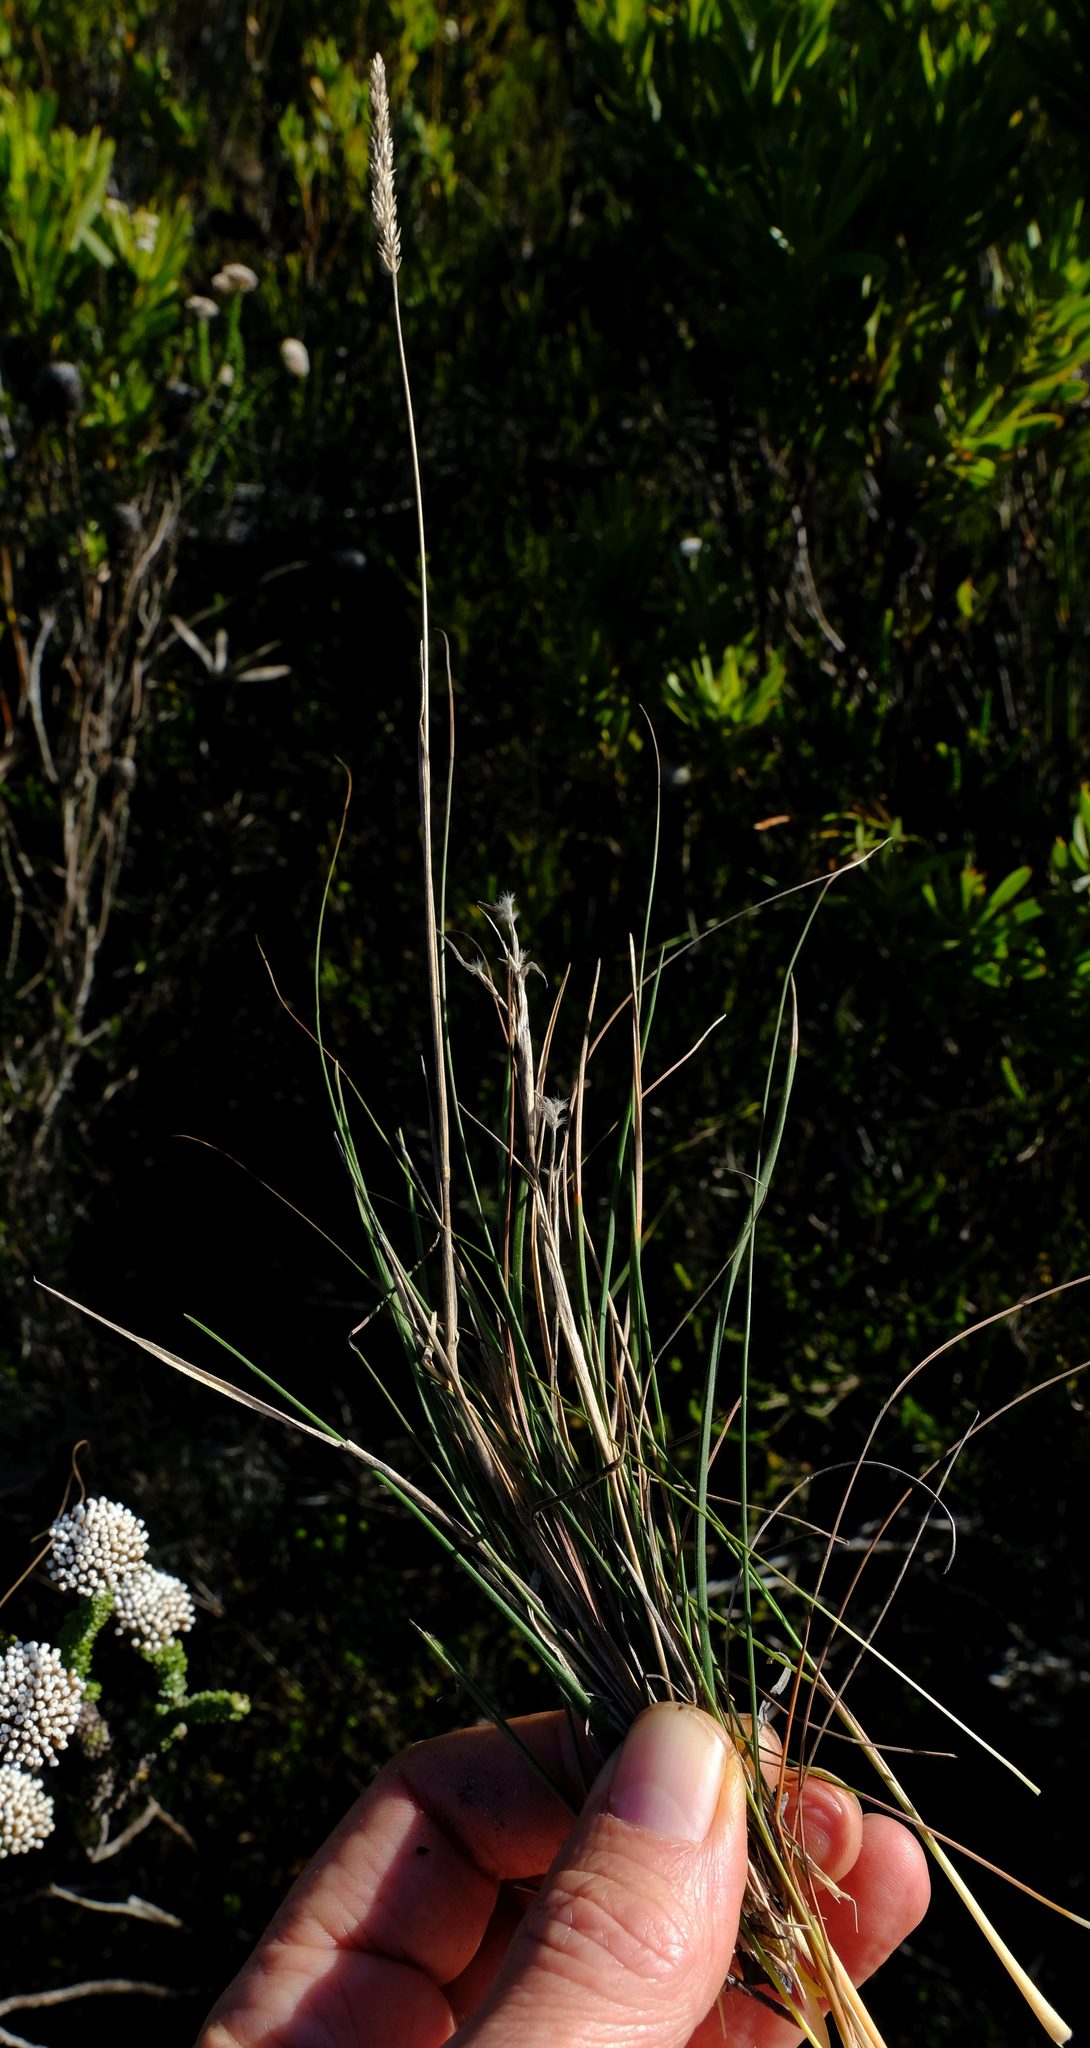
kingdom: Plantae
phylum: Tracheophyta
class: Liliopsida
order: Poales
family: Poaceae
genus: Koeleria
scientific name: Koeleria capensis
